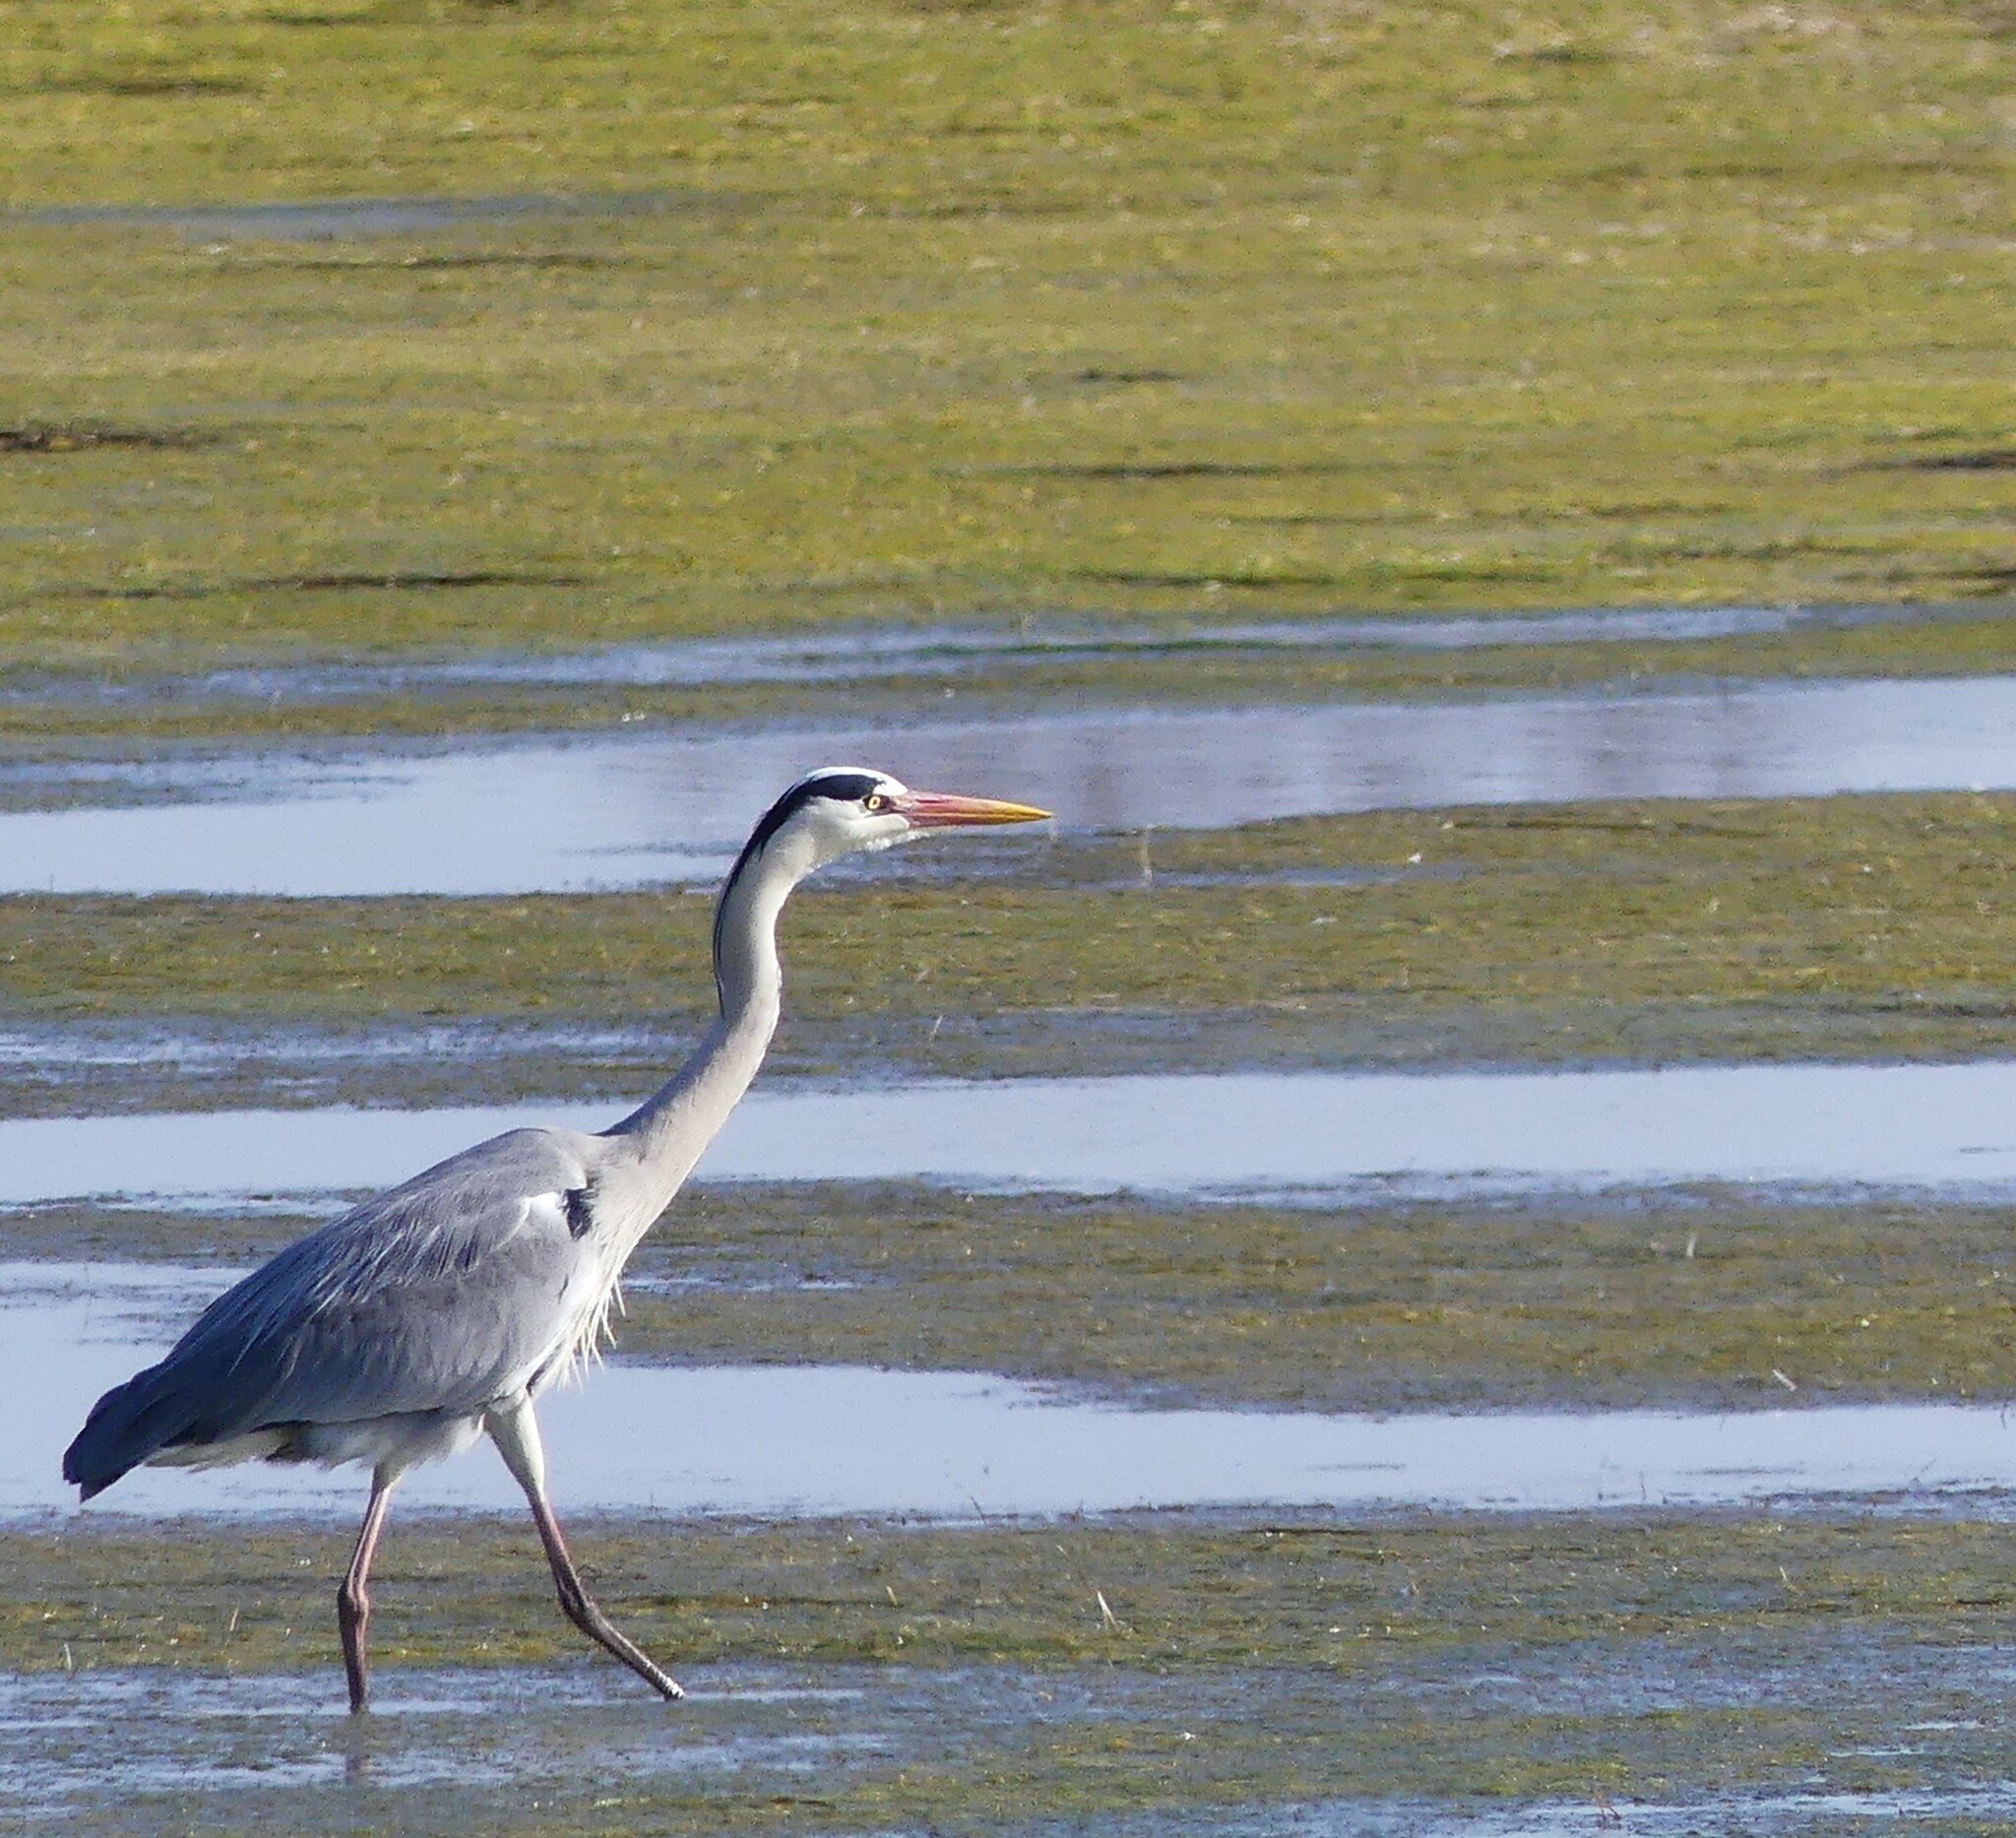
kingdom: Animalia
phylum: Chordata
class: Aves
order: Pelecaniformes
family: Ardeidae
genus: Ardea
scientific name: Ardea cinerea
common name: Grey heron
